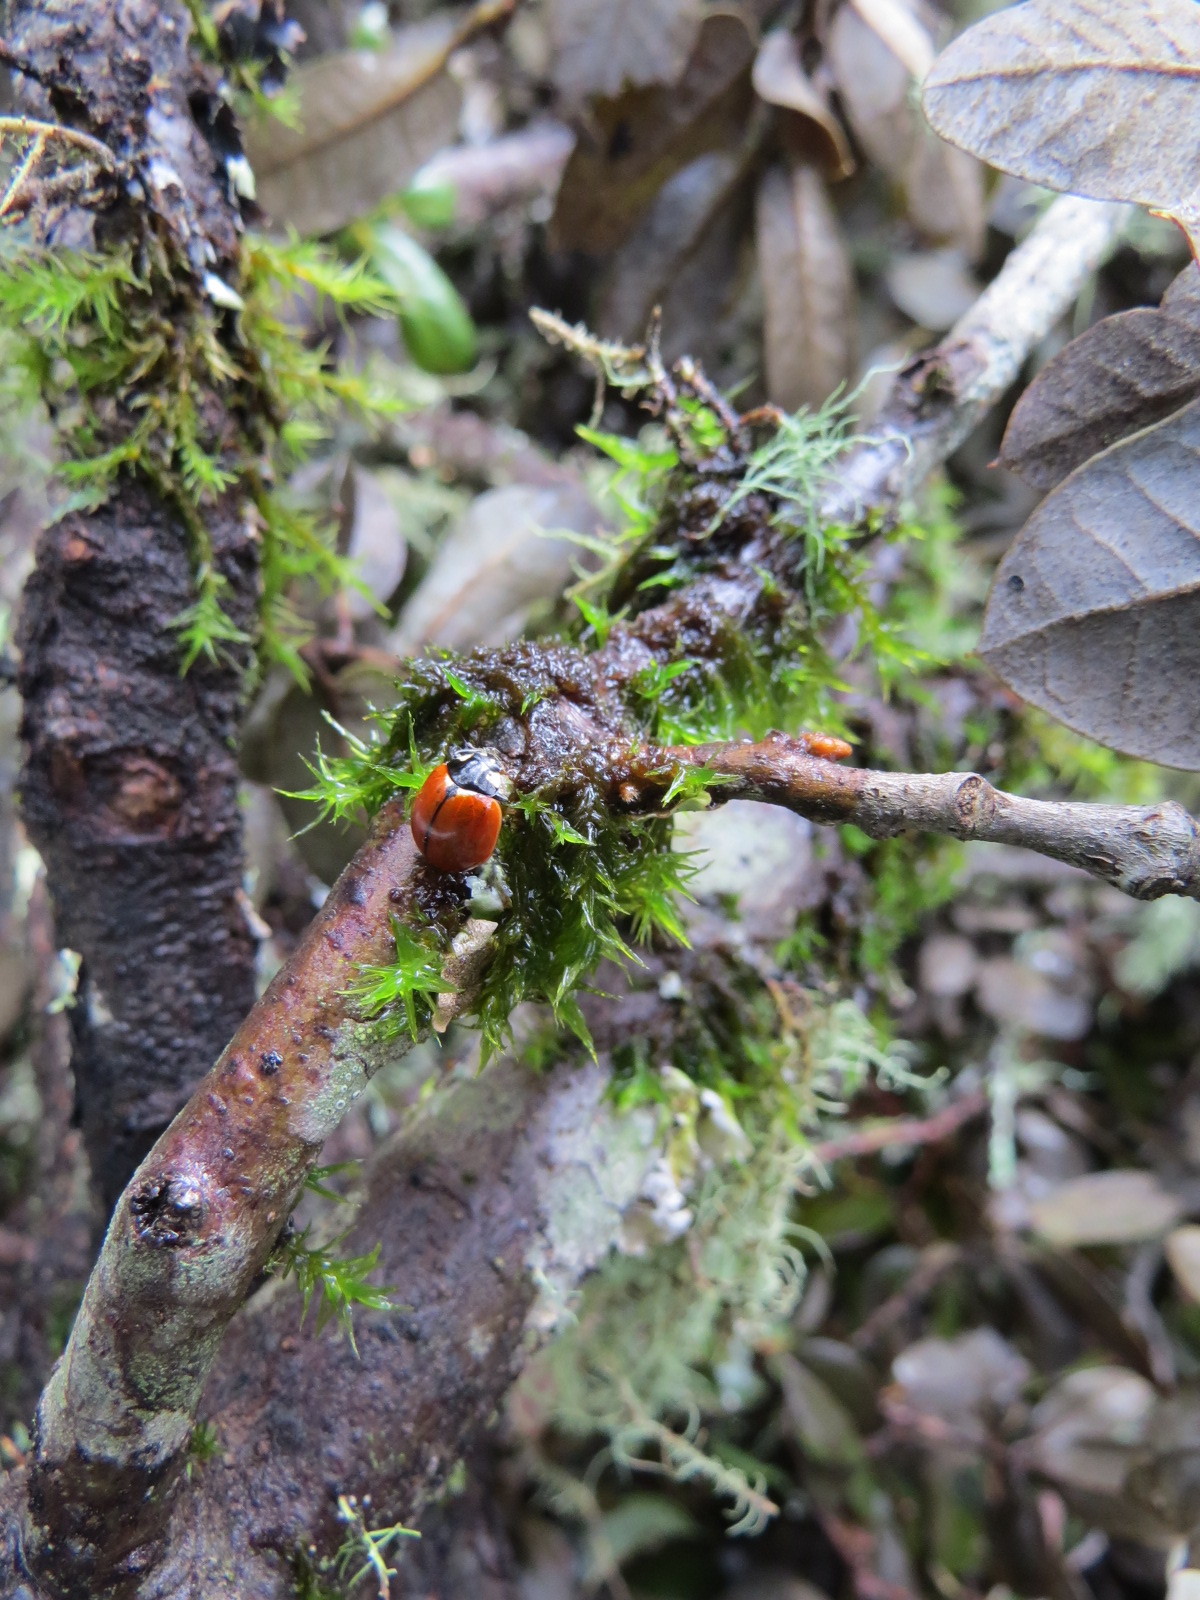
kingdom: Animalia
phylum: Arthropoda
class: Insecta
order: Coleoptera
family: Coccinellidae
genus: Coccinella
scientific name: Coccinella californica
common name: Lady beetle
